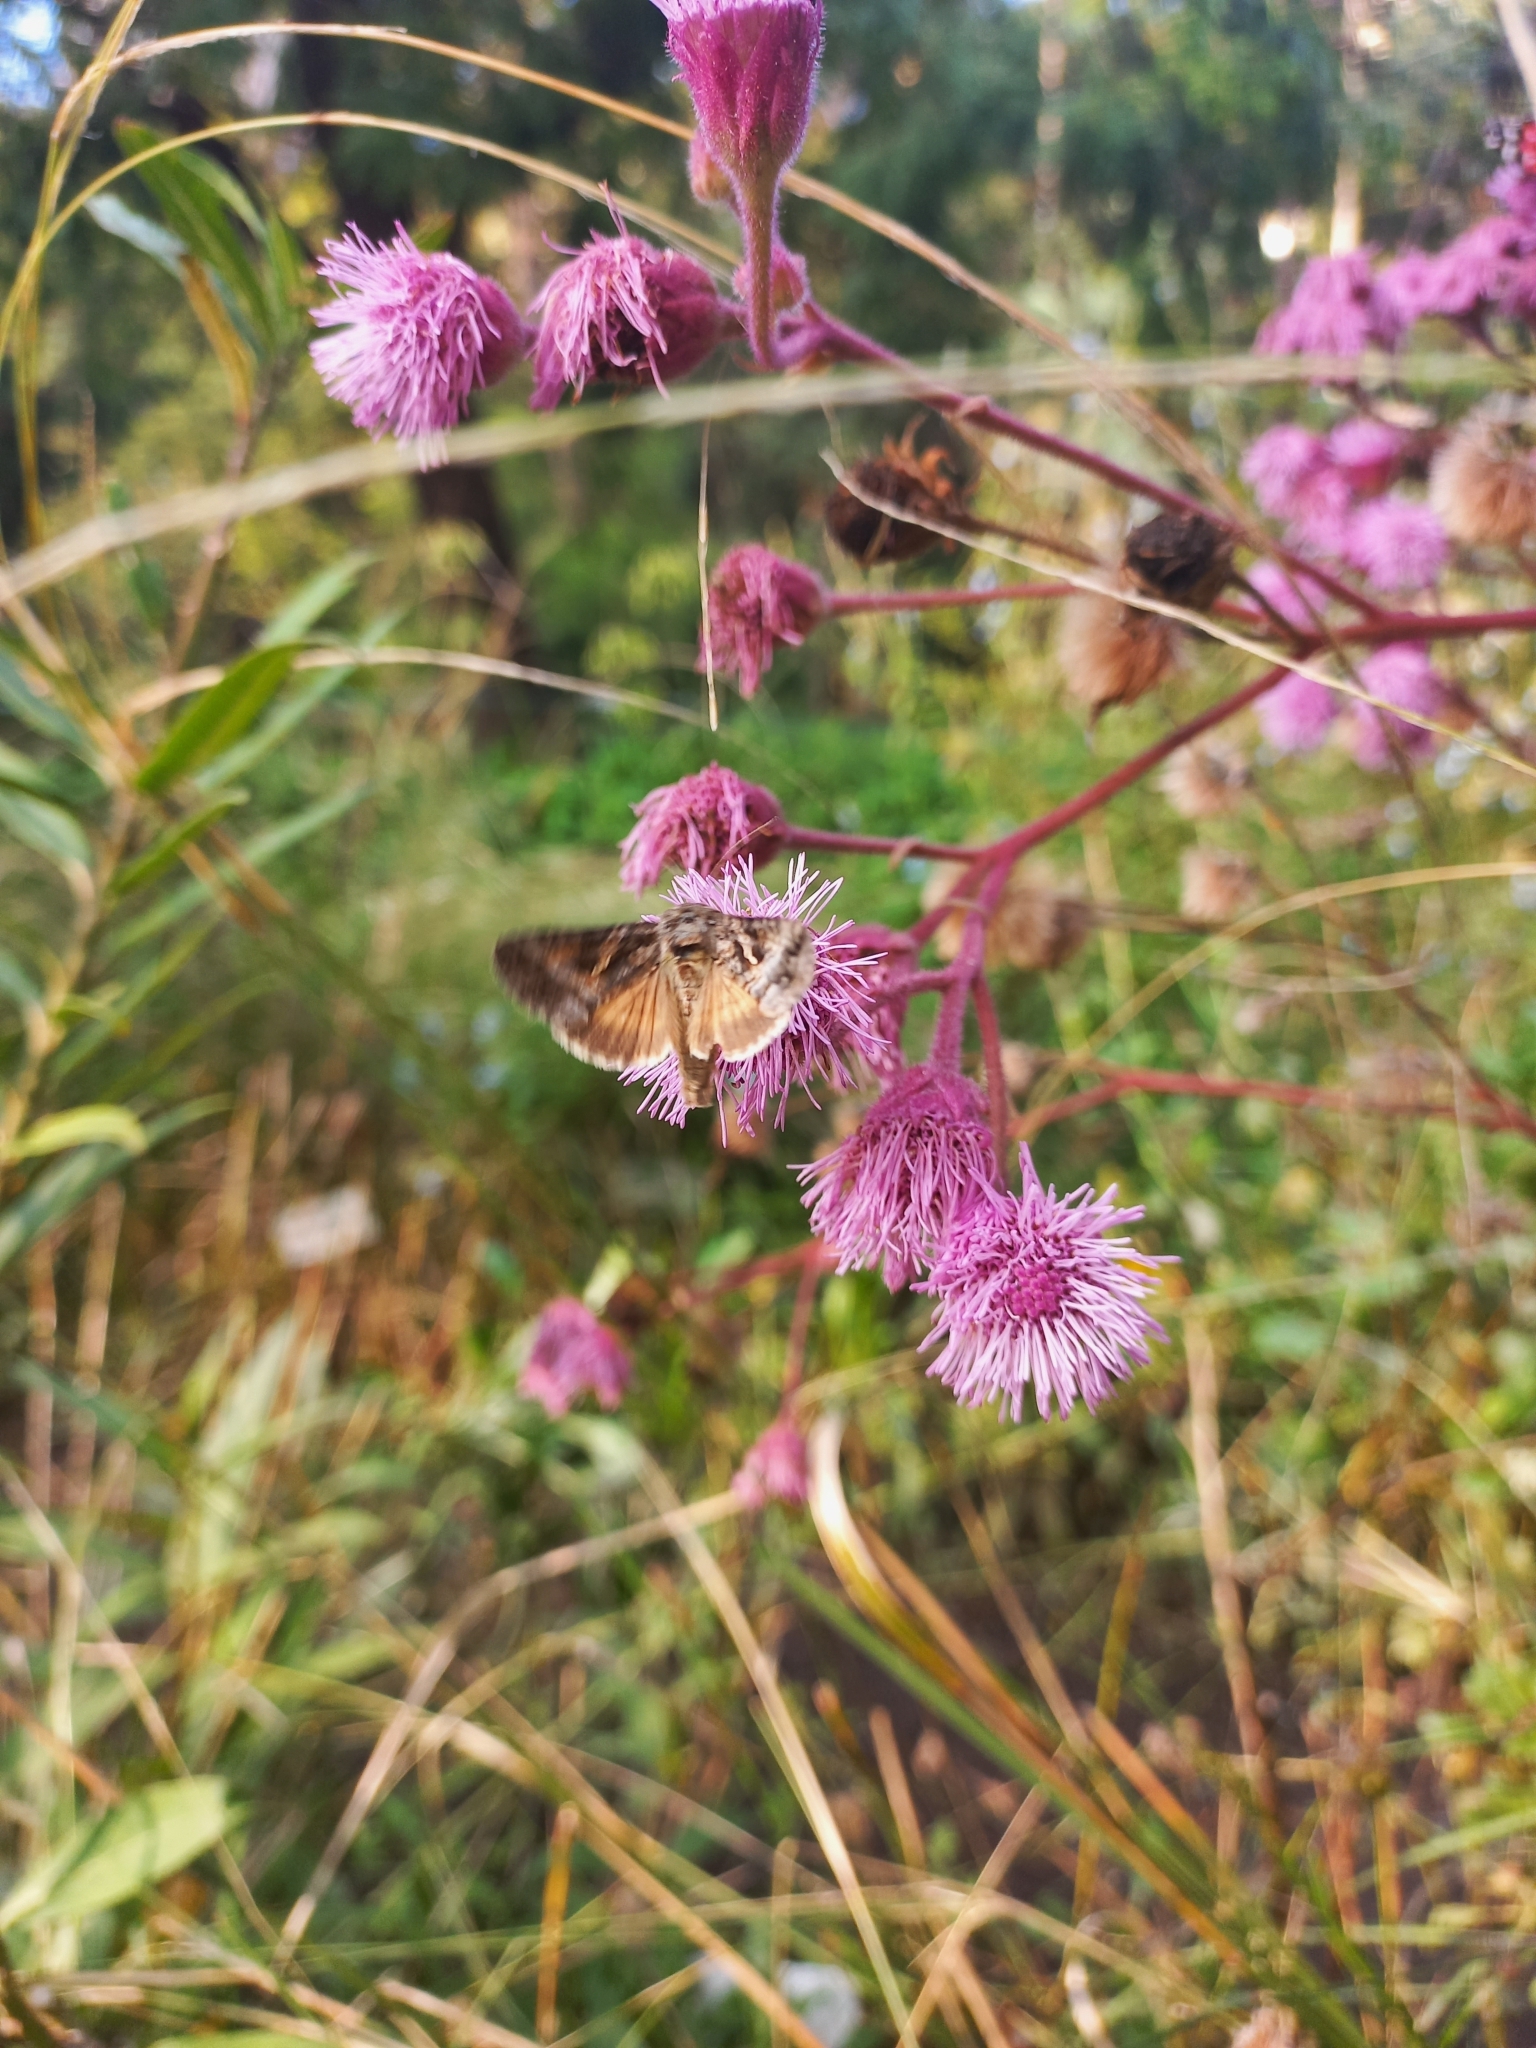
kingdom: Animalia
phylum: Arthropoda
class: Insecta
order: Lepidoptera
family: Noctuidae
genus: Rachiplusia
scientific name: Rachiplusia nu
